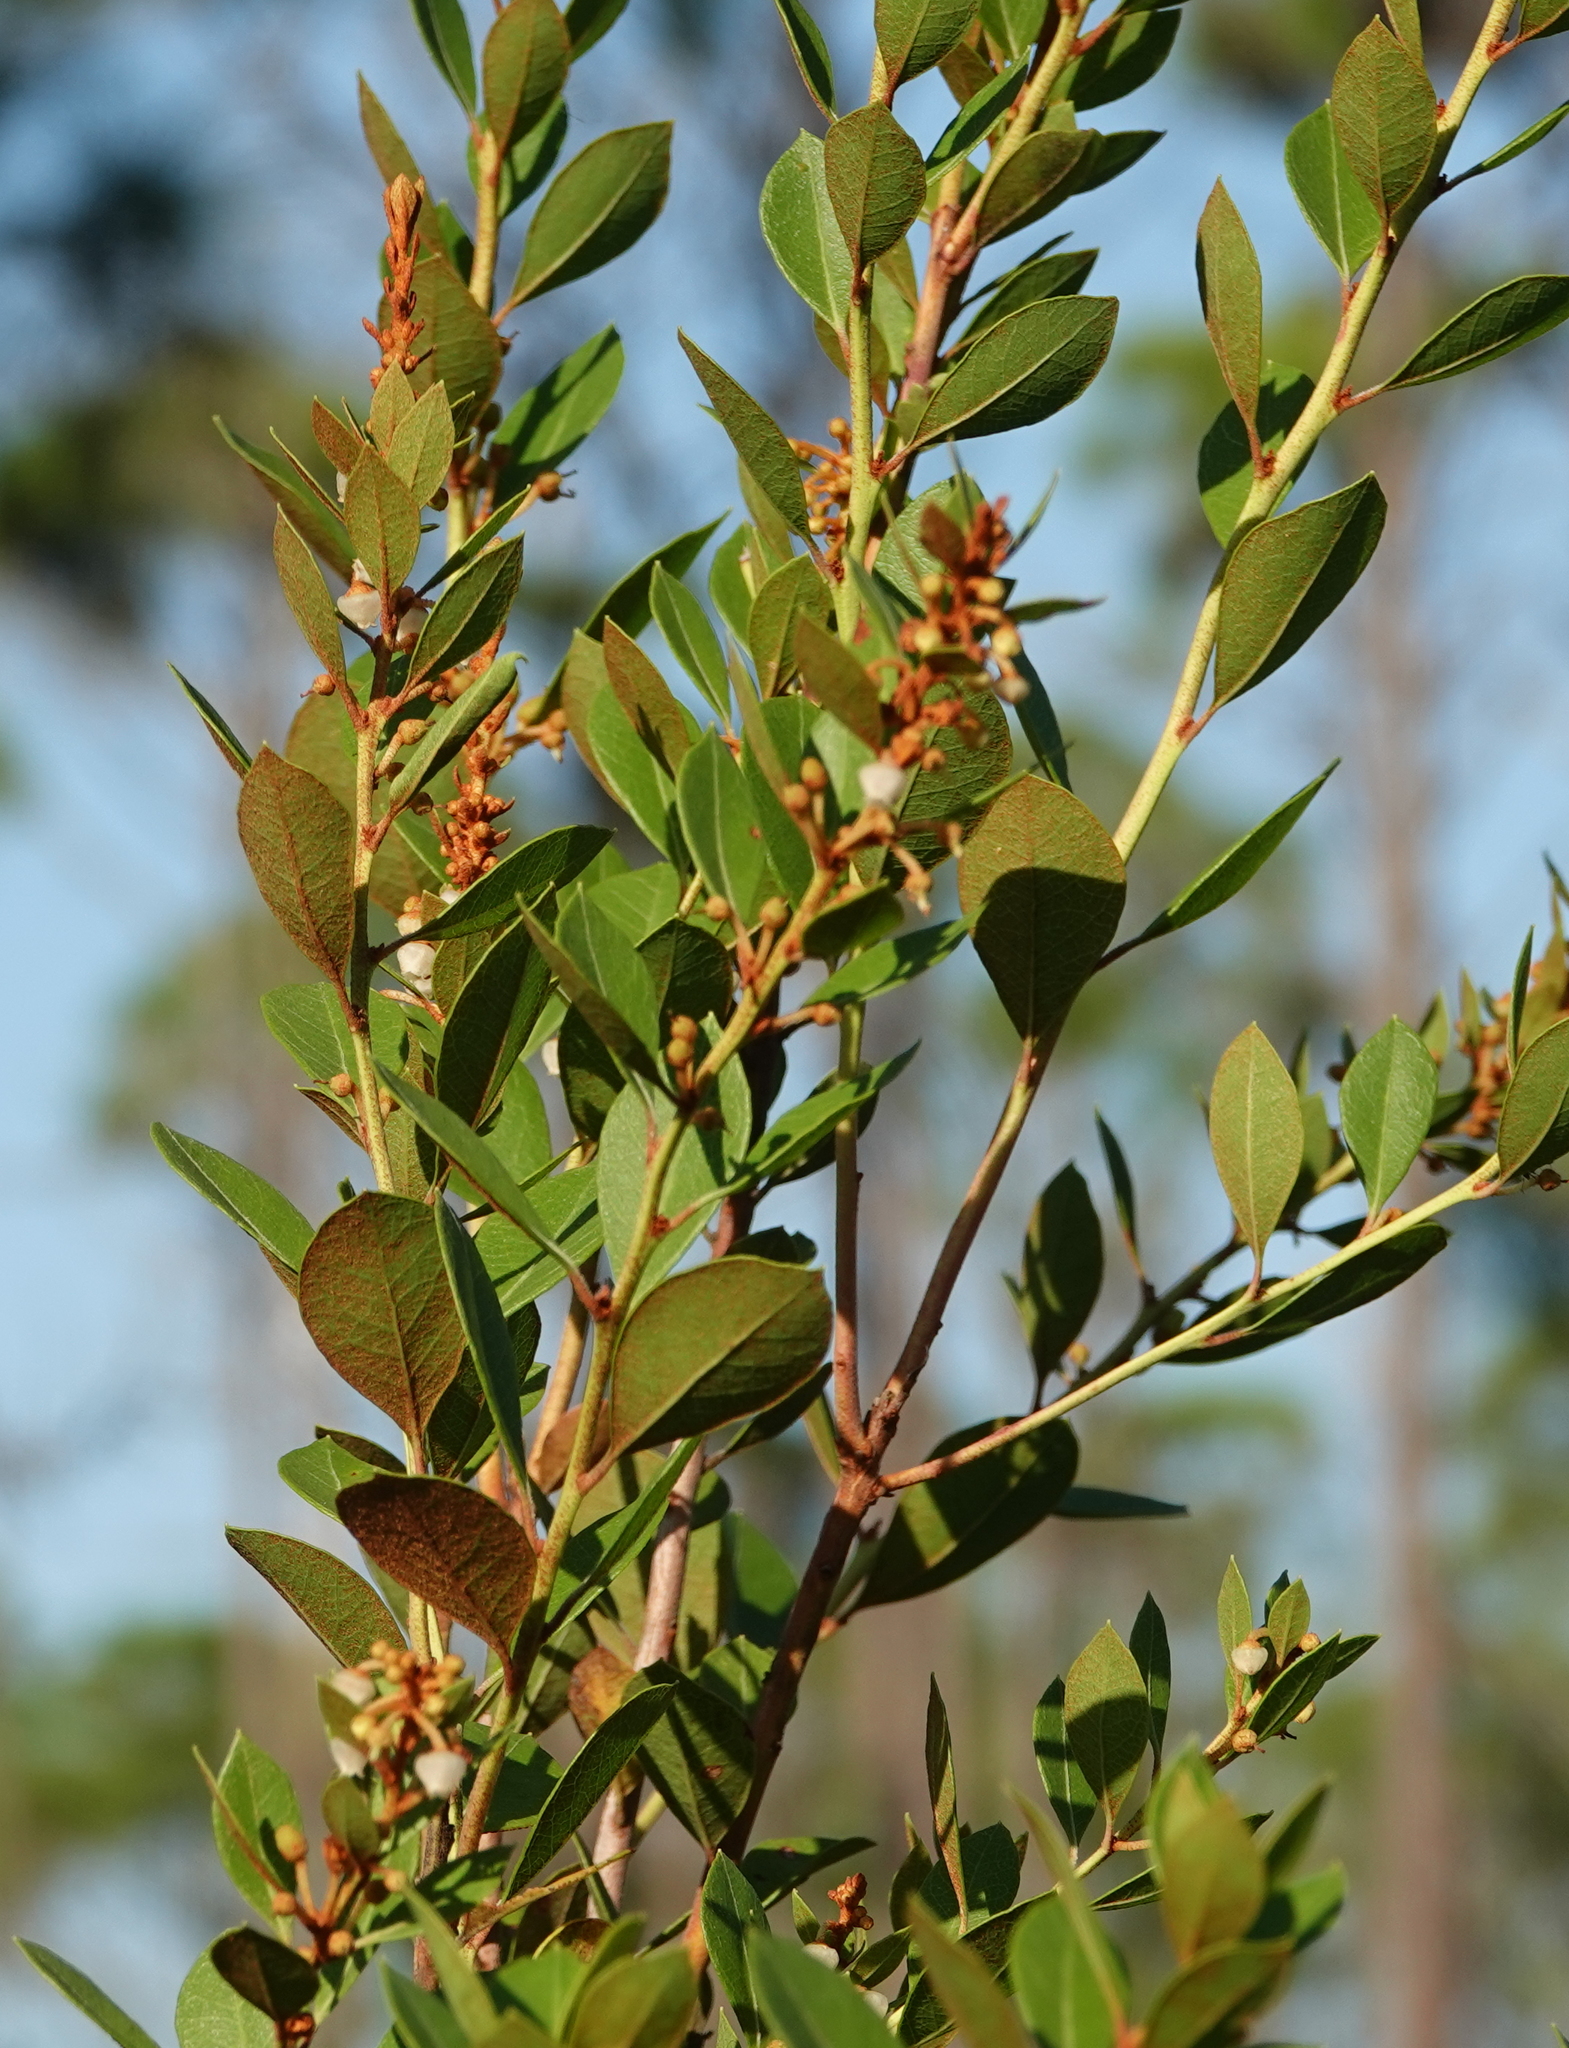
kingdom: Plantae
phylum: Tracheophyta
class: Magnoliopsida
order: Ericales
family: Ericaceae
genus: Lyonia
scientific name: Lyonia fruticosa
